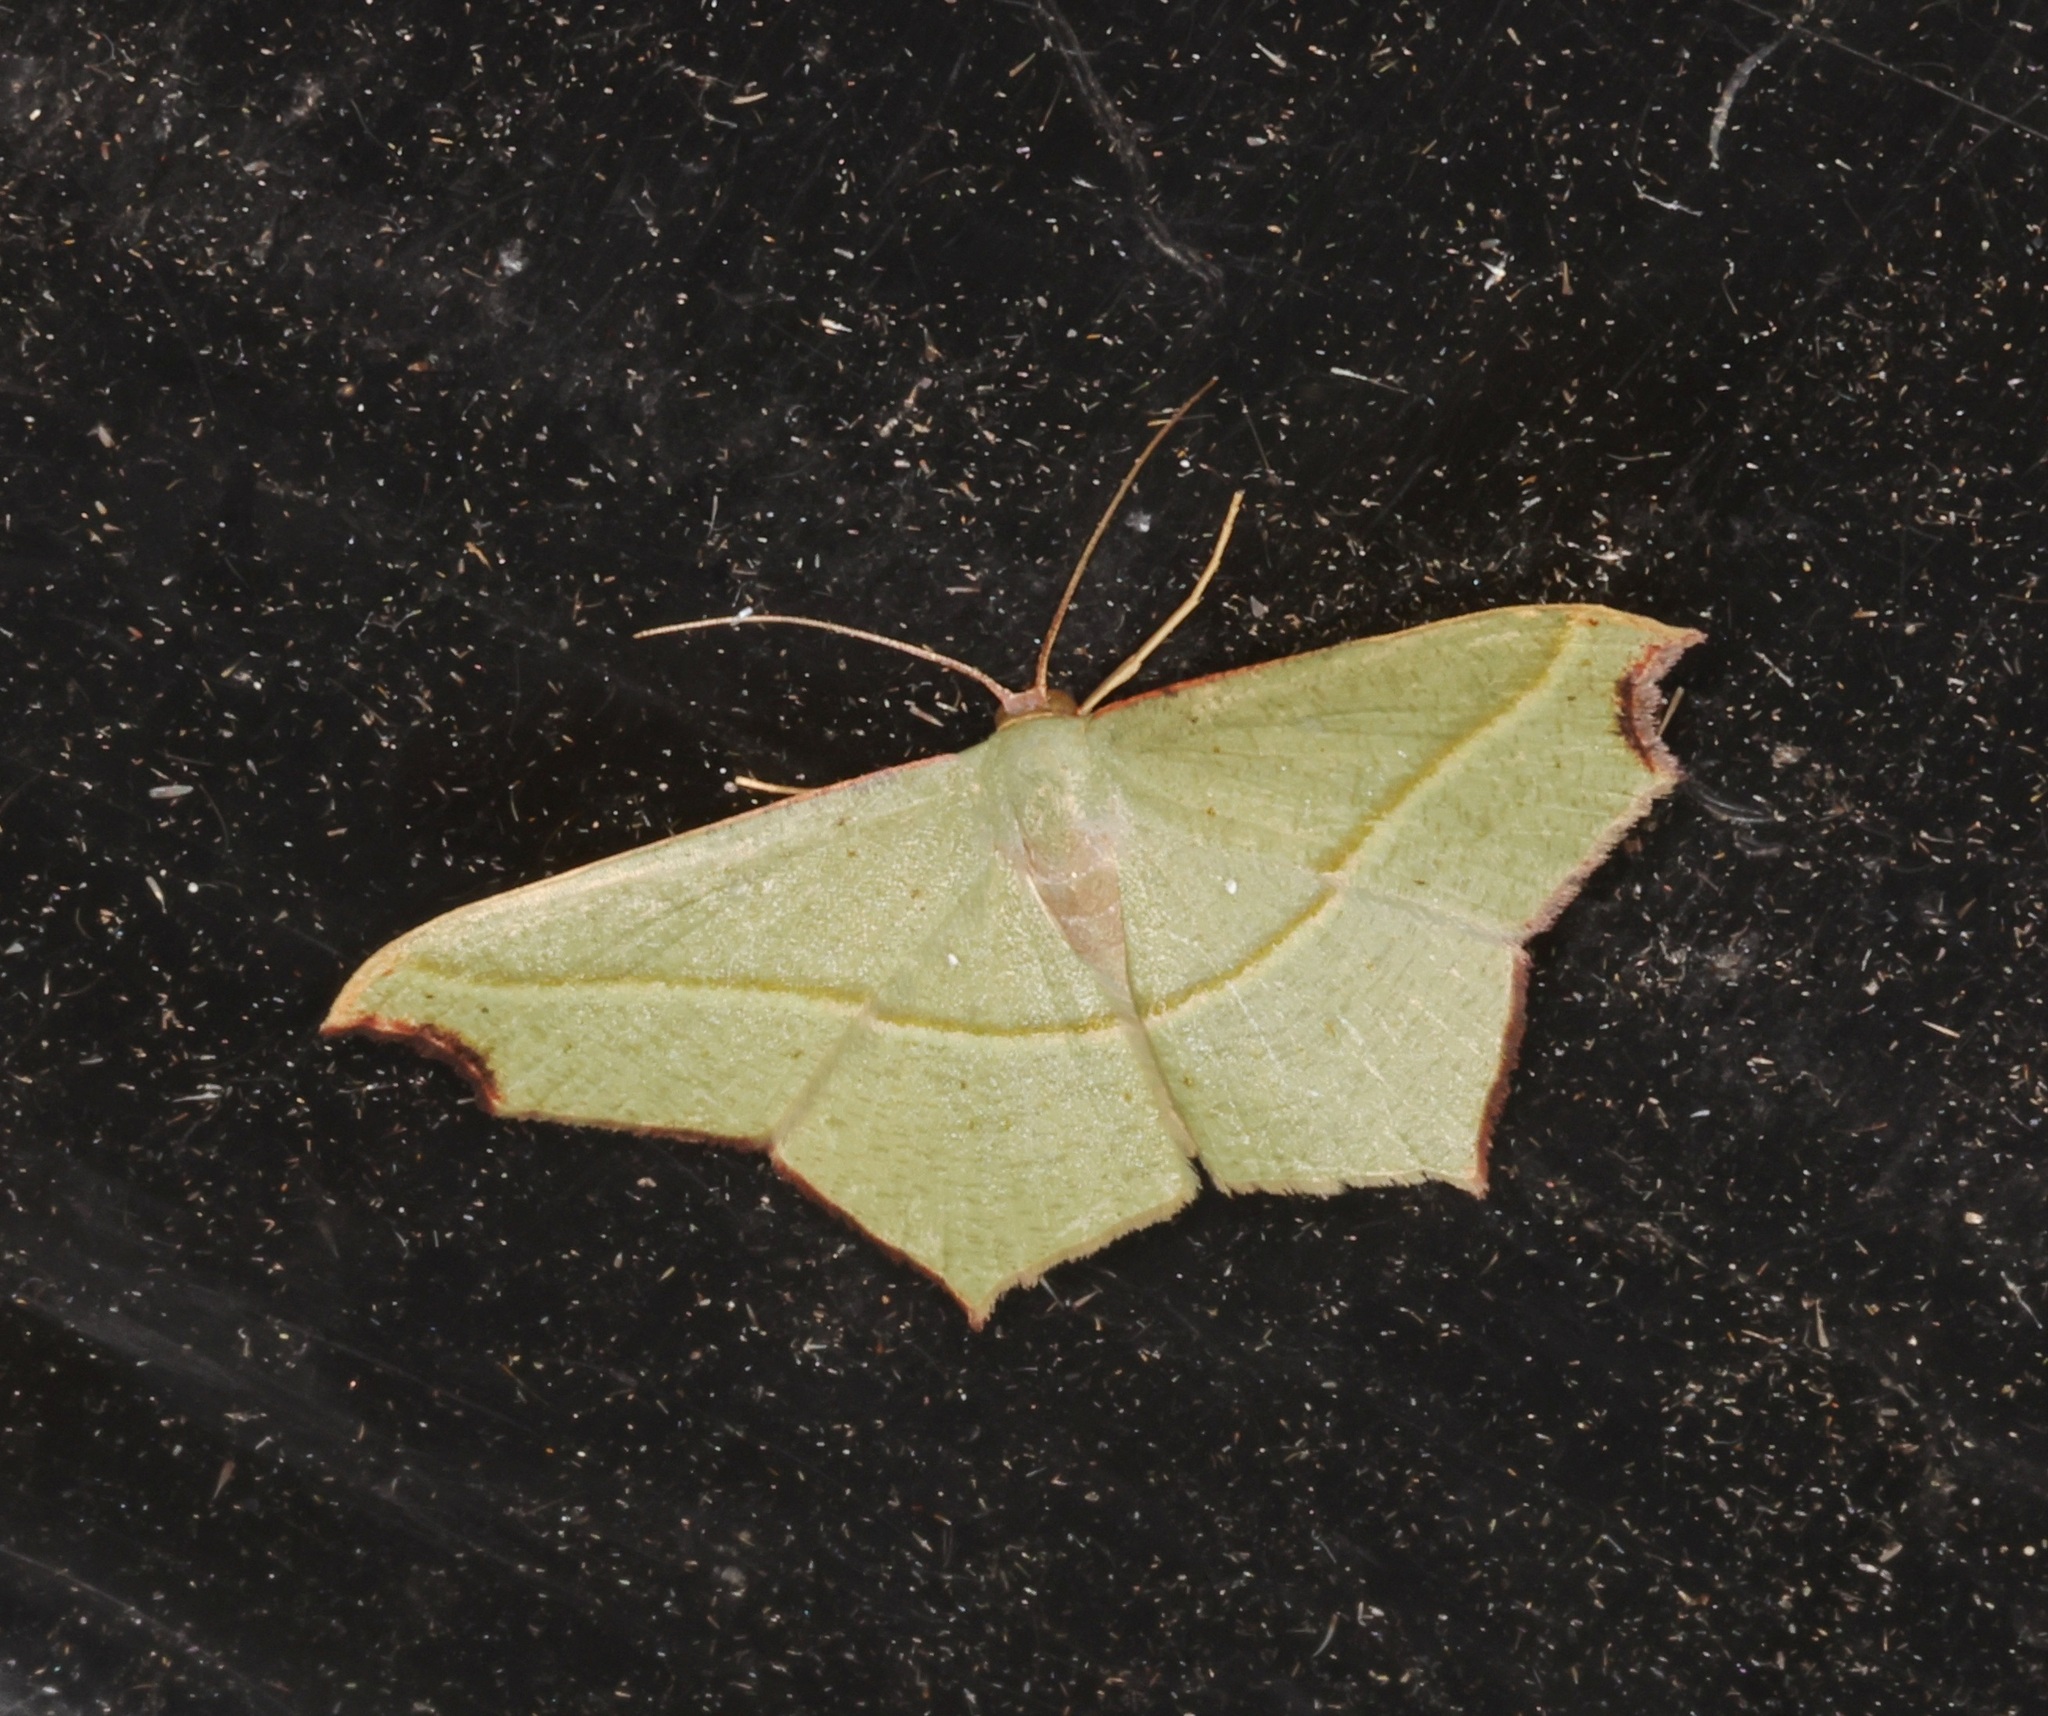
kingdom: Animalia
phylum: Arthropoda
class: Insecta
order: Lepidoptera
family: Geometridae
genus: Traminda
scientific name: Traminda aventiaria
